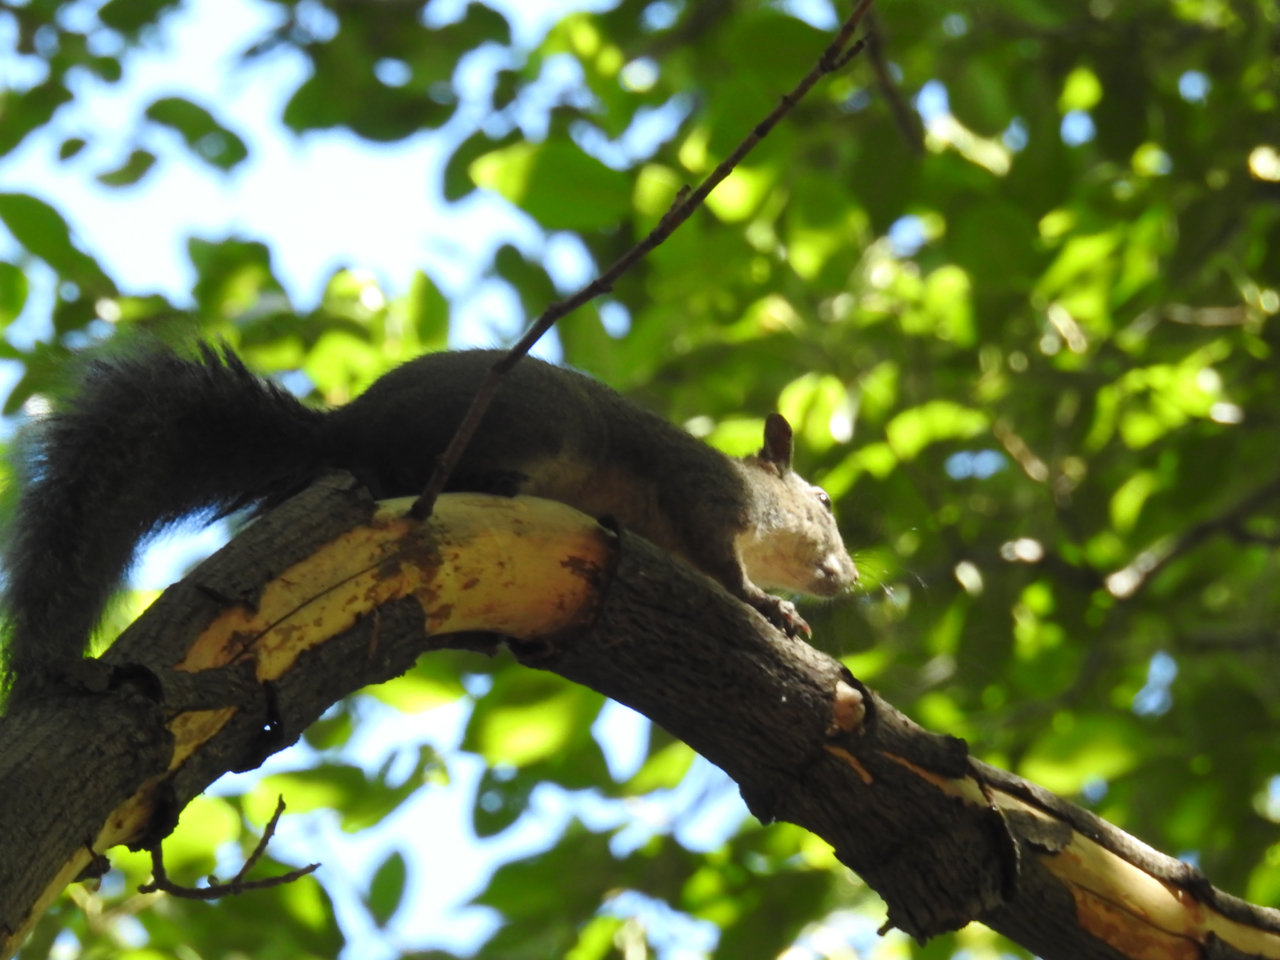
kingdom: Animalia
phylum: Chordata
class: Mammalia
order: Rodentia
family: Sciuridae
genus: Sciurus
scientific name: Sciurus griseus
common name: Western gray squirrel
